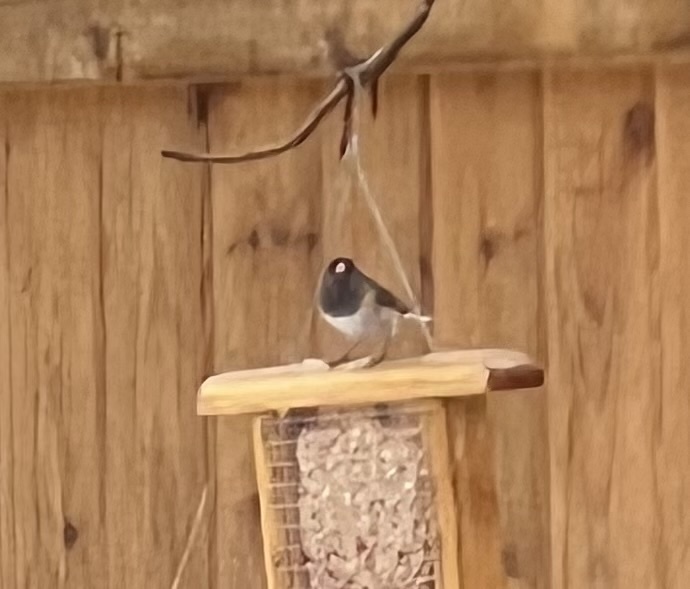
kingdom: Animalia
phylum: Chordata
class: Aves
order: Passeriformes
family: Passerellidae
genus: Junco
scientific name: Junco hyemalis
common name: Dark-eyed junco
